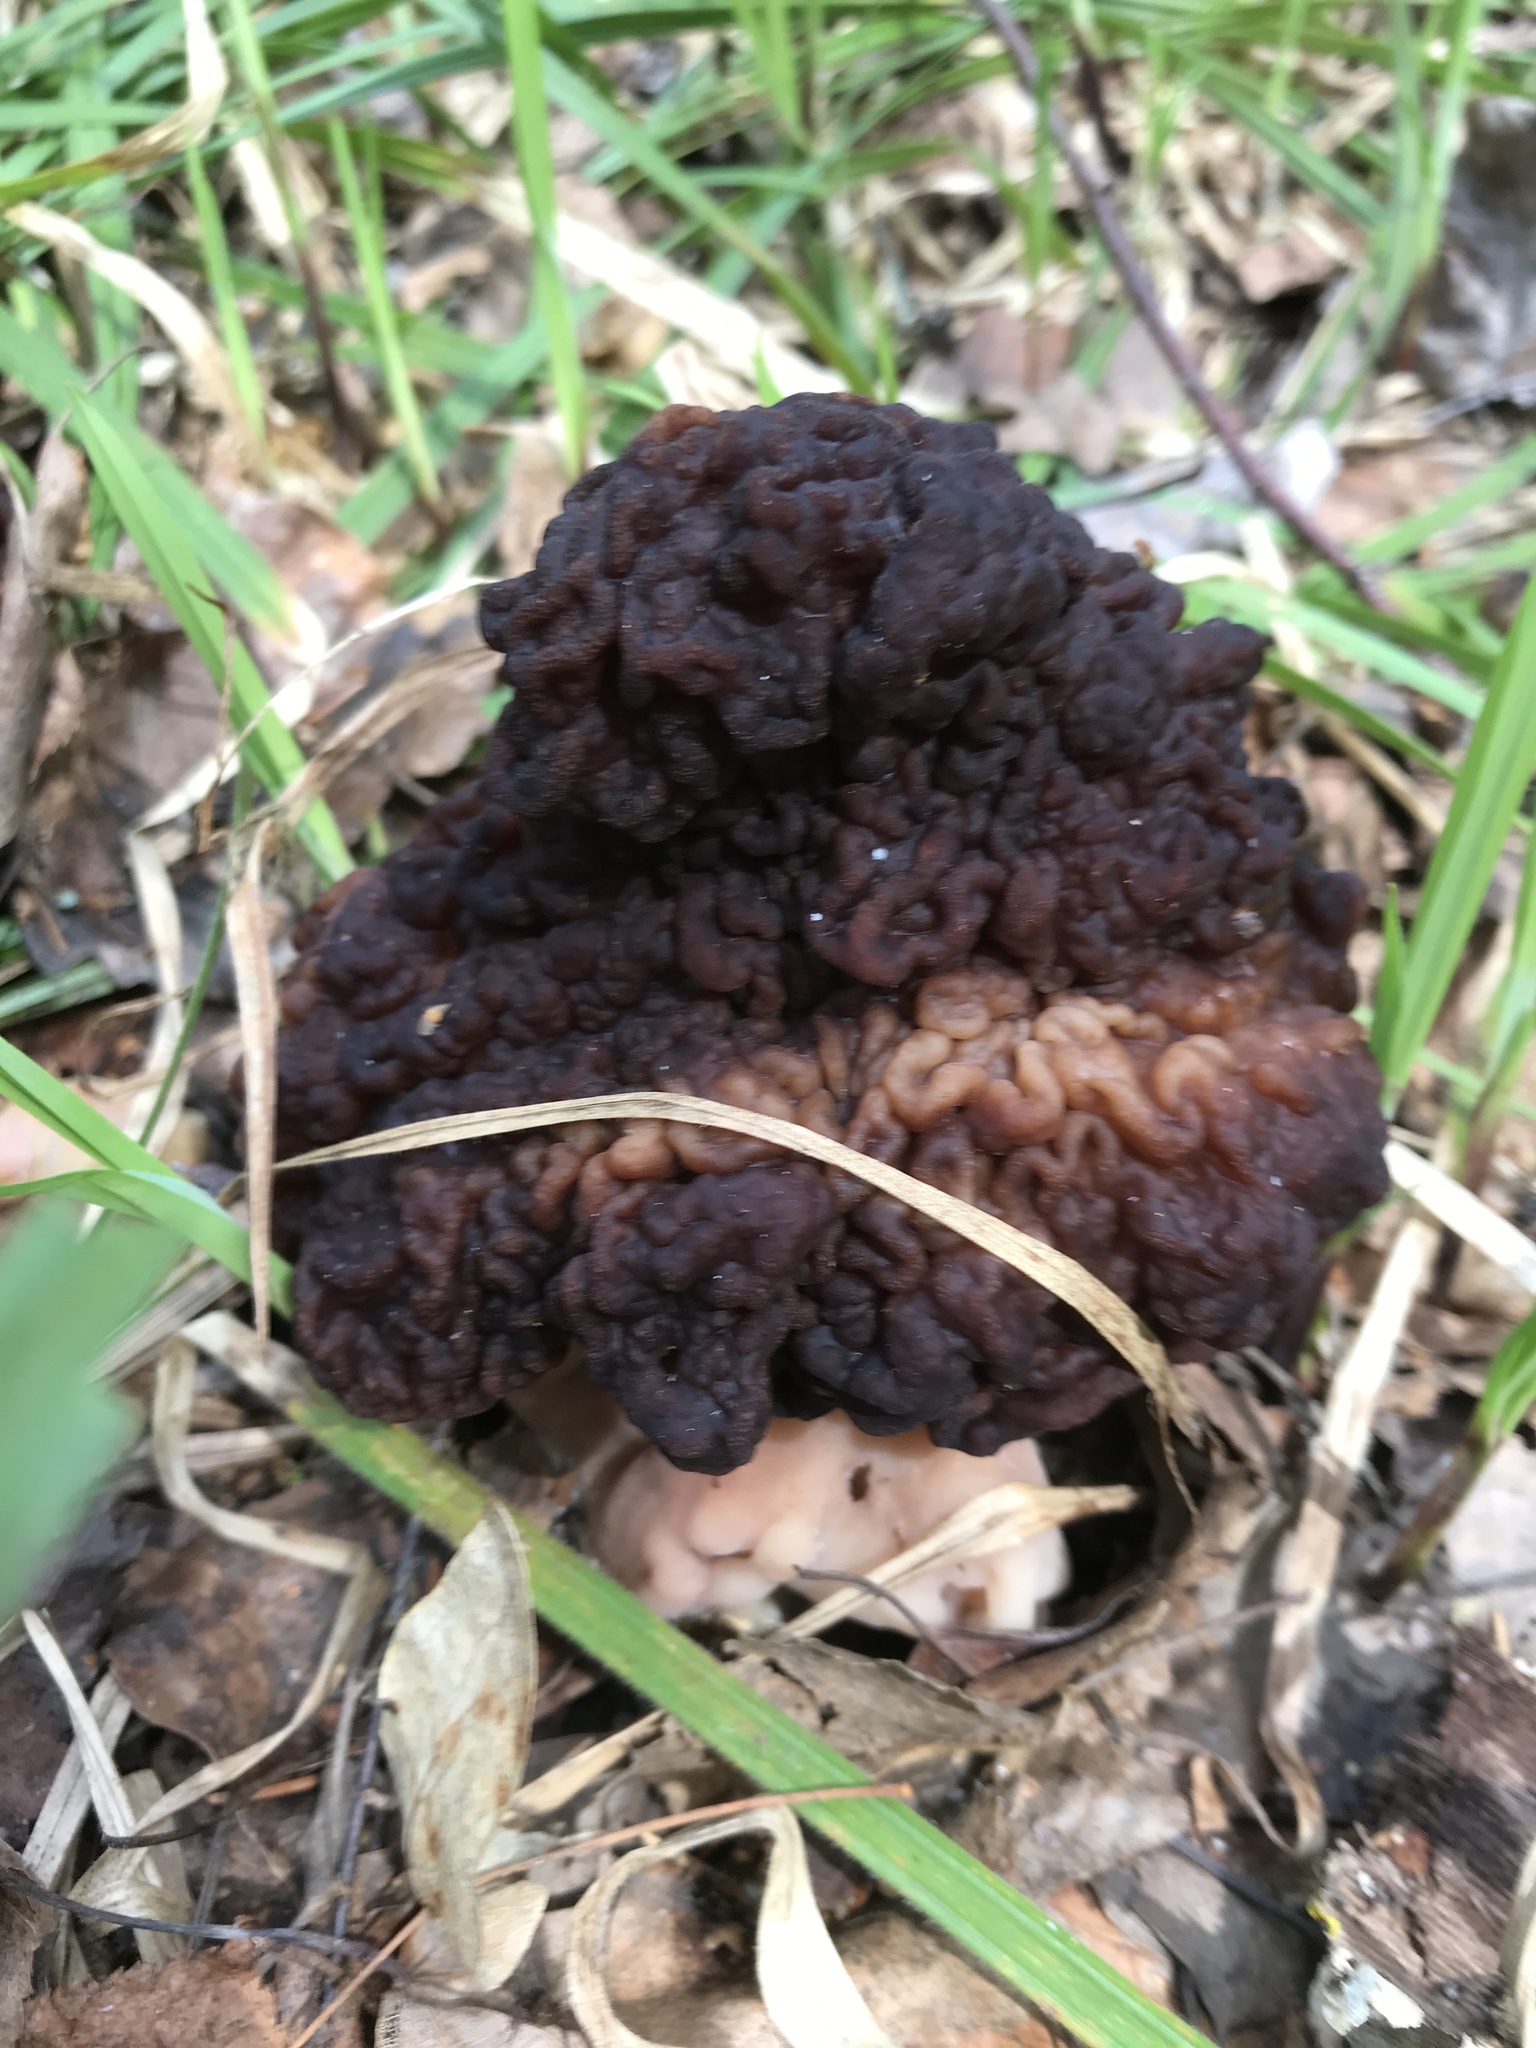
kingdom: Fungi
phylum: Ascomycota
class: Pezizomycetes
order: Pezizales
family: Discinaceae
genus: Gyromitra
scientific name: Gyromitra esculenta
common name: False morel
